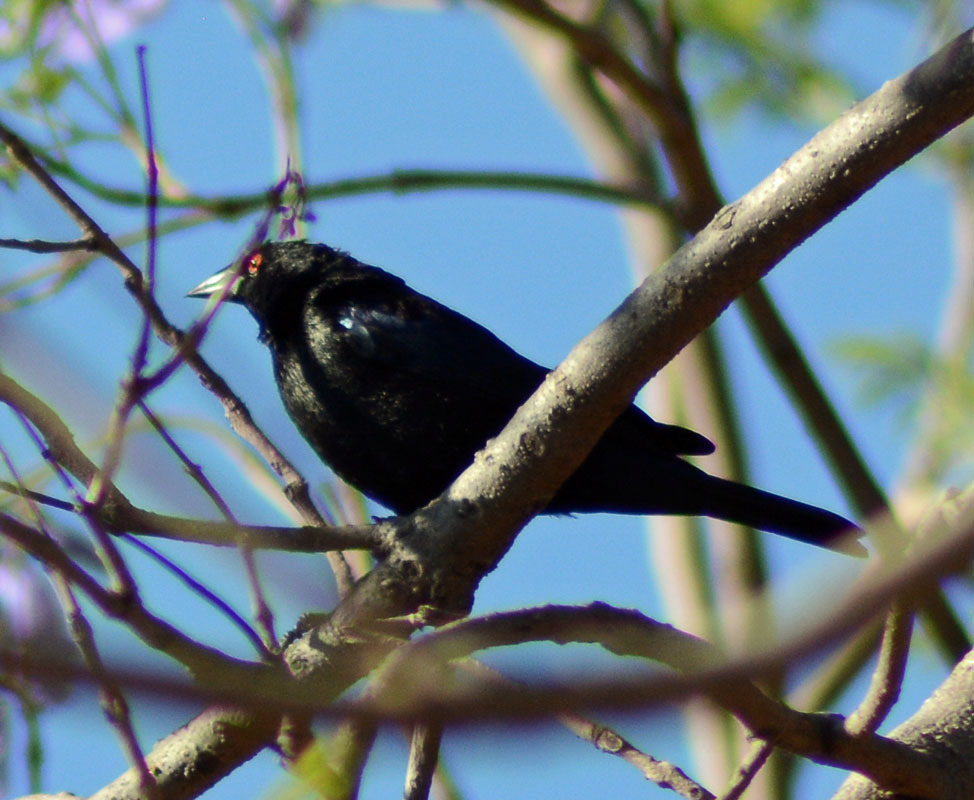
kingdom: Animalia
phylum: Chordata
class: Aves
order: Passeriformes
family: Icteridae
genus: Molothrus
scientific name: Molothrus aeneus
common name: Bronzed cowbird
